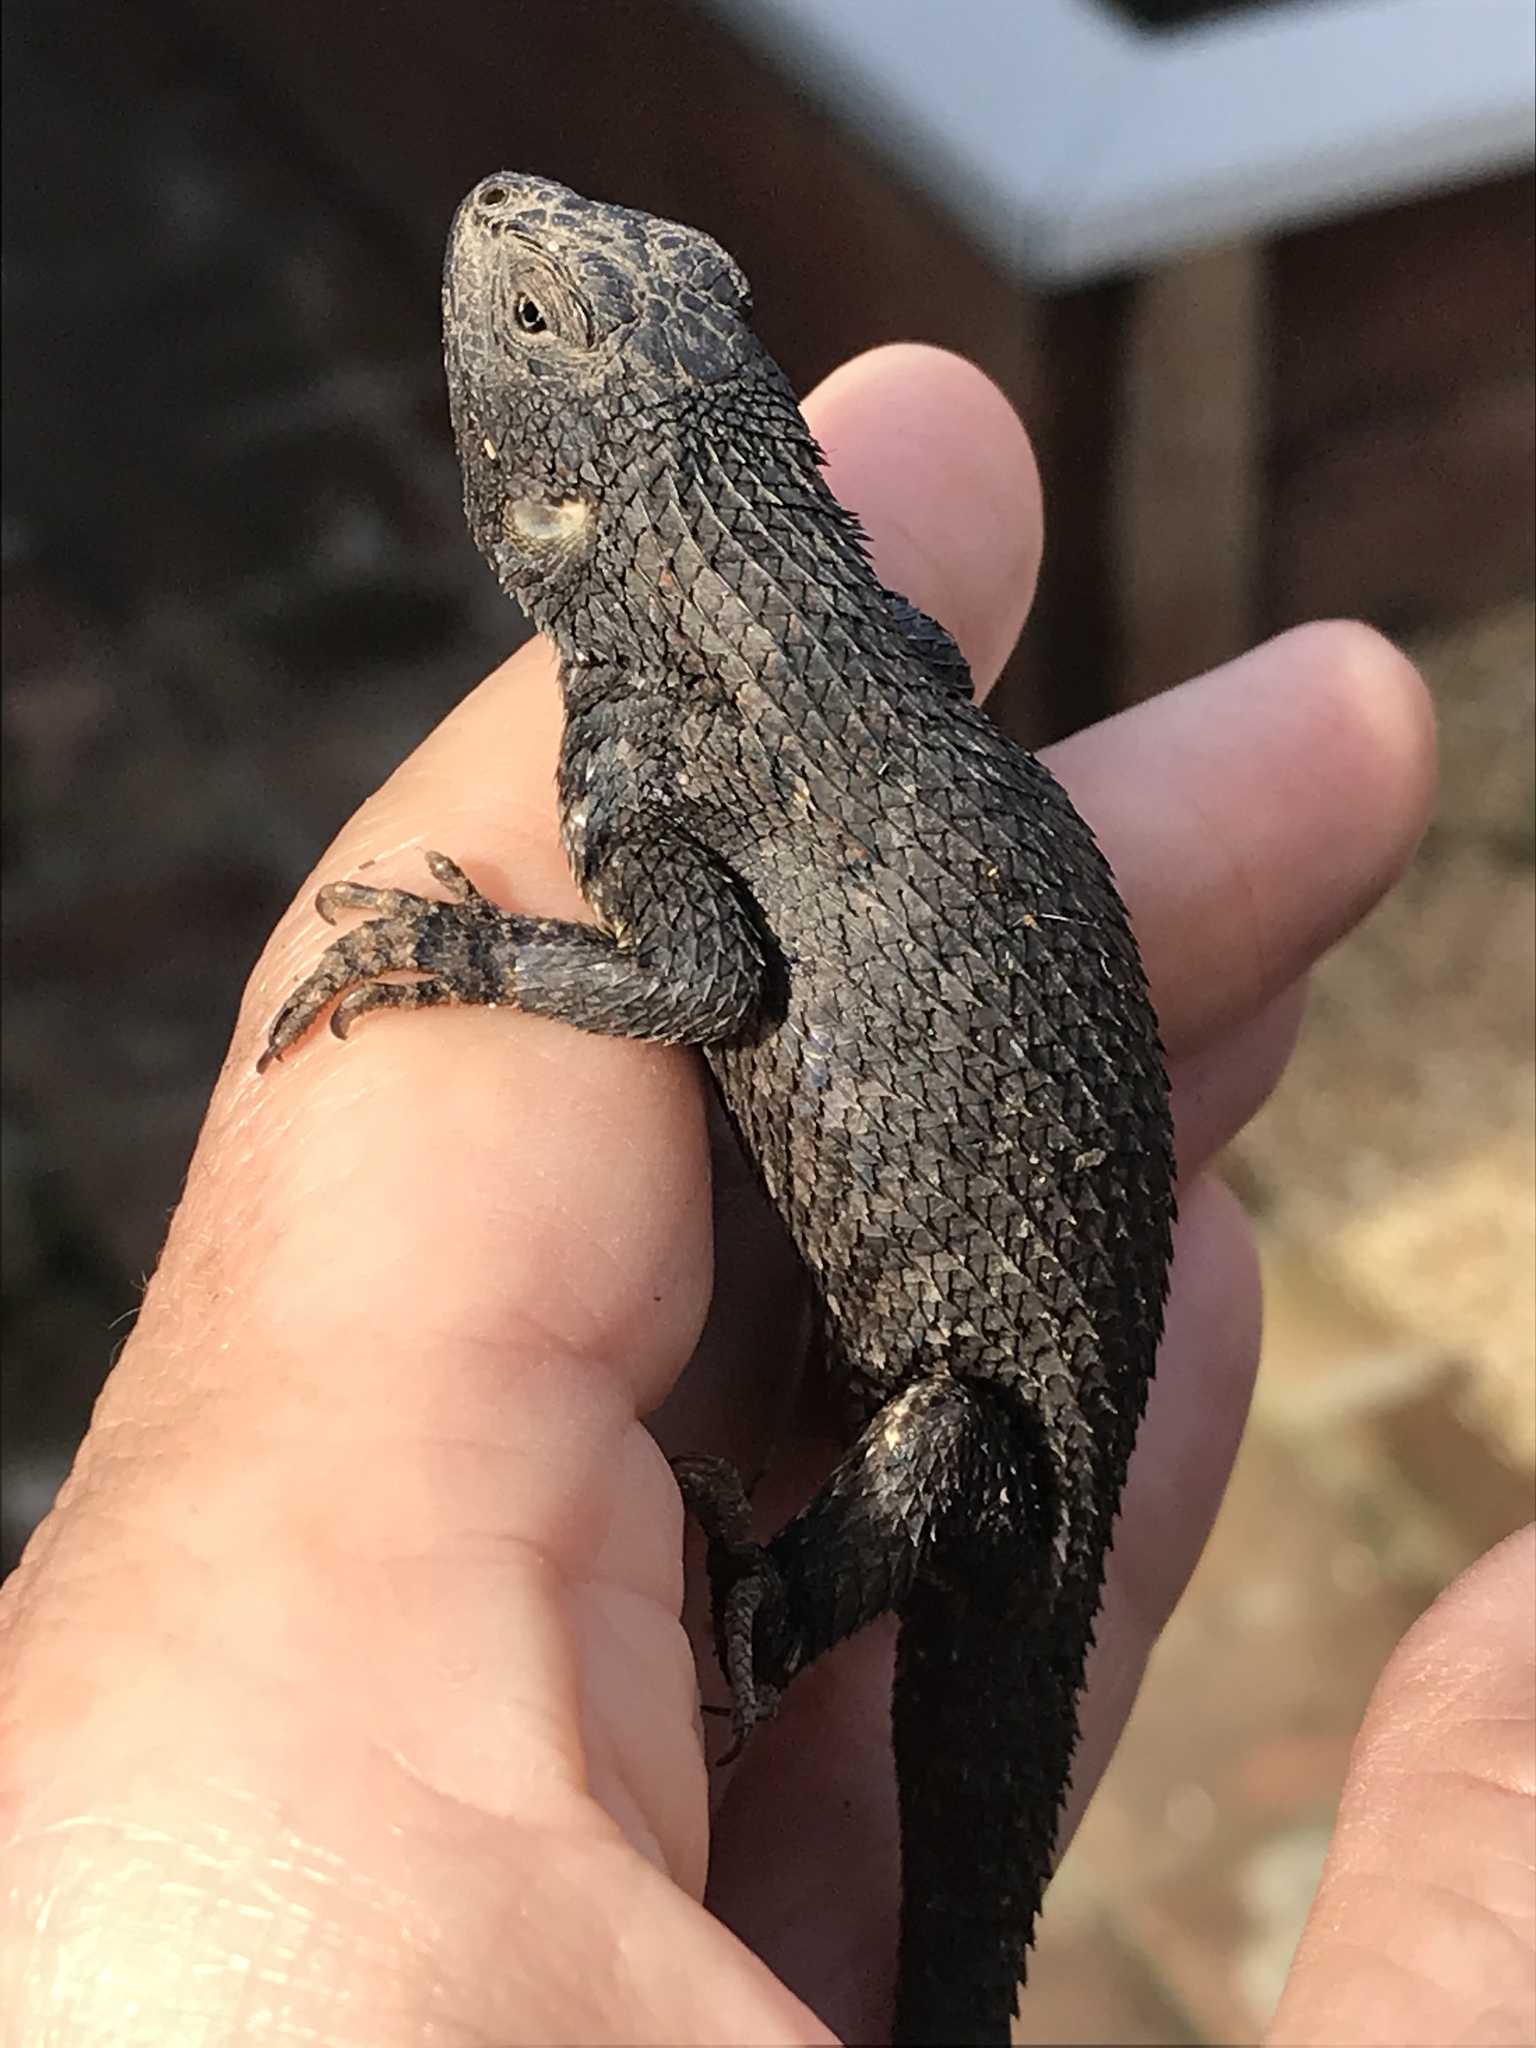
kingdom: Animalia
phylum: Chordata
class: Squamata
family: Phrynosomatidae
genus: Sceloporus
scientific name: Sceloporus occidentalis
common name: Western fence lizard
